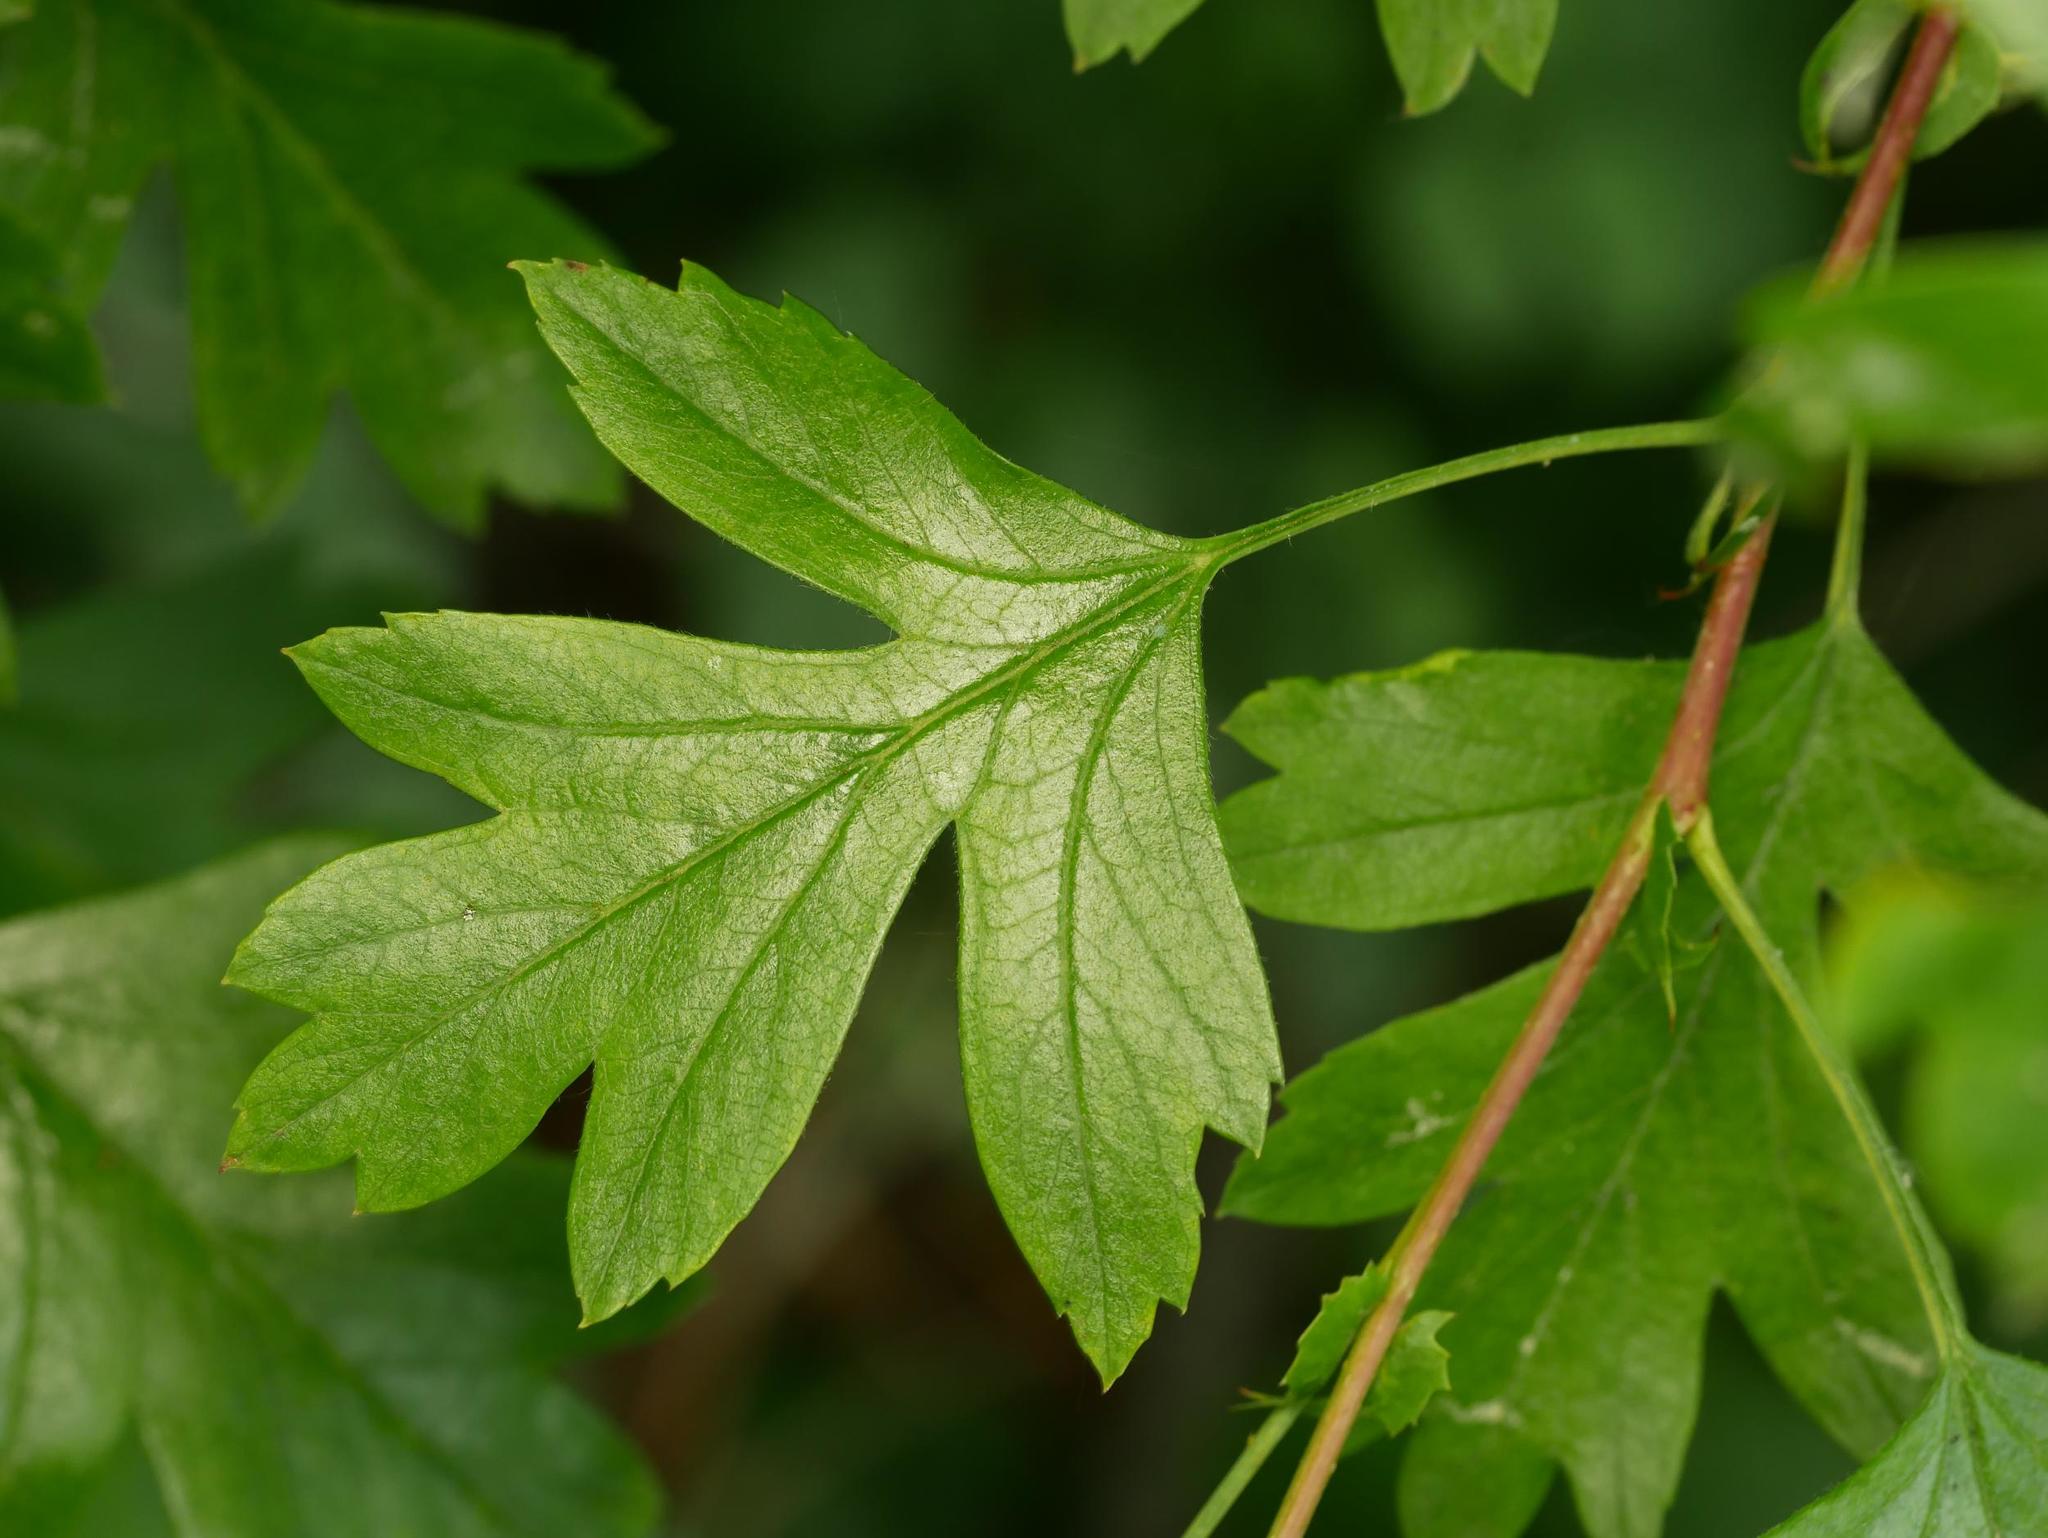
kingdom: Plantae
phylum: Tracheophyta
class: Magnoliopsida
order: Rosales
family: Rosaceae
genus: Crataegus
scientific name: Crataegus monogyna
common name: Hawthorn
